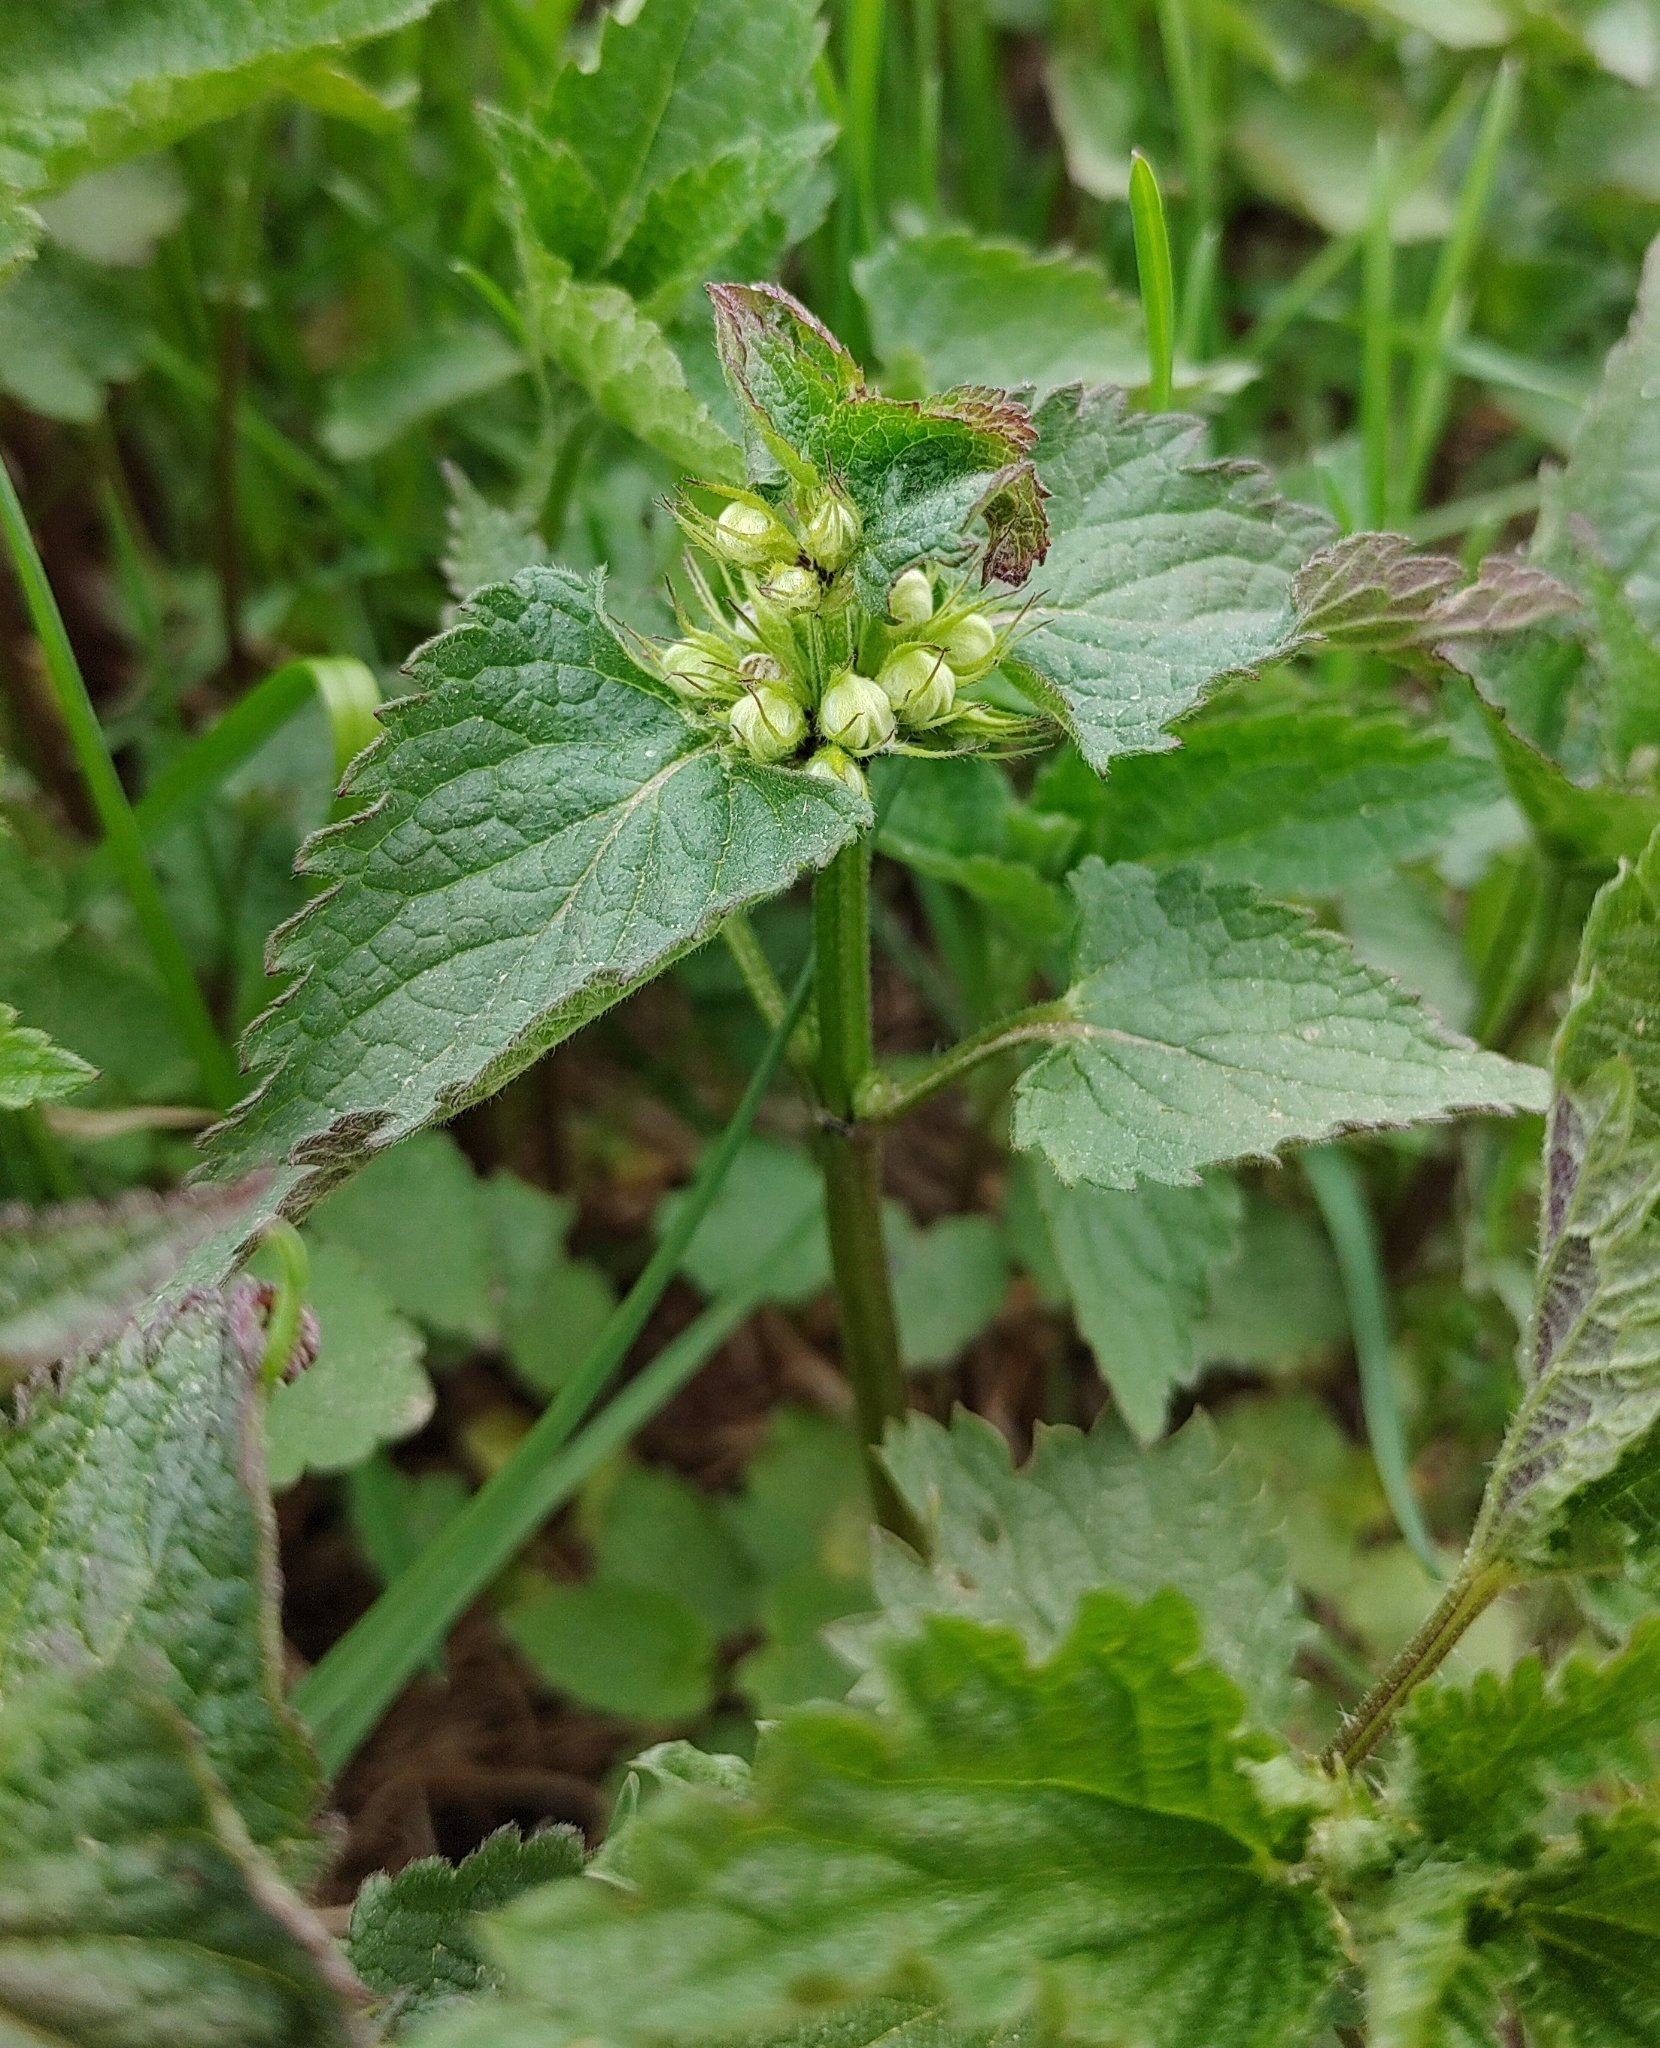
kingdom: Plantae
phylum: Tracheophyta
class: Magnoliopsida
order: Lamiales
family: Lamiaceae
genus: Lamium
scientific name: Lamium album
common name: White dead-nettle
